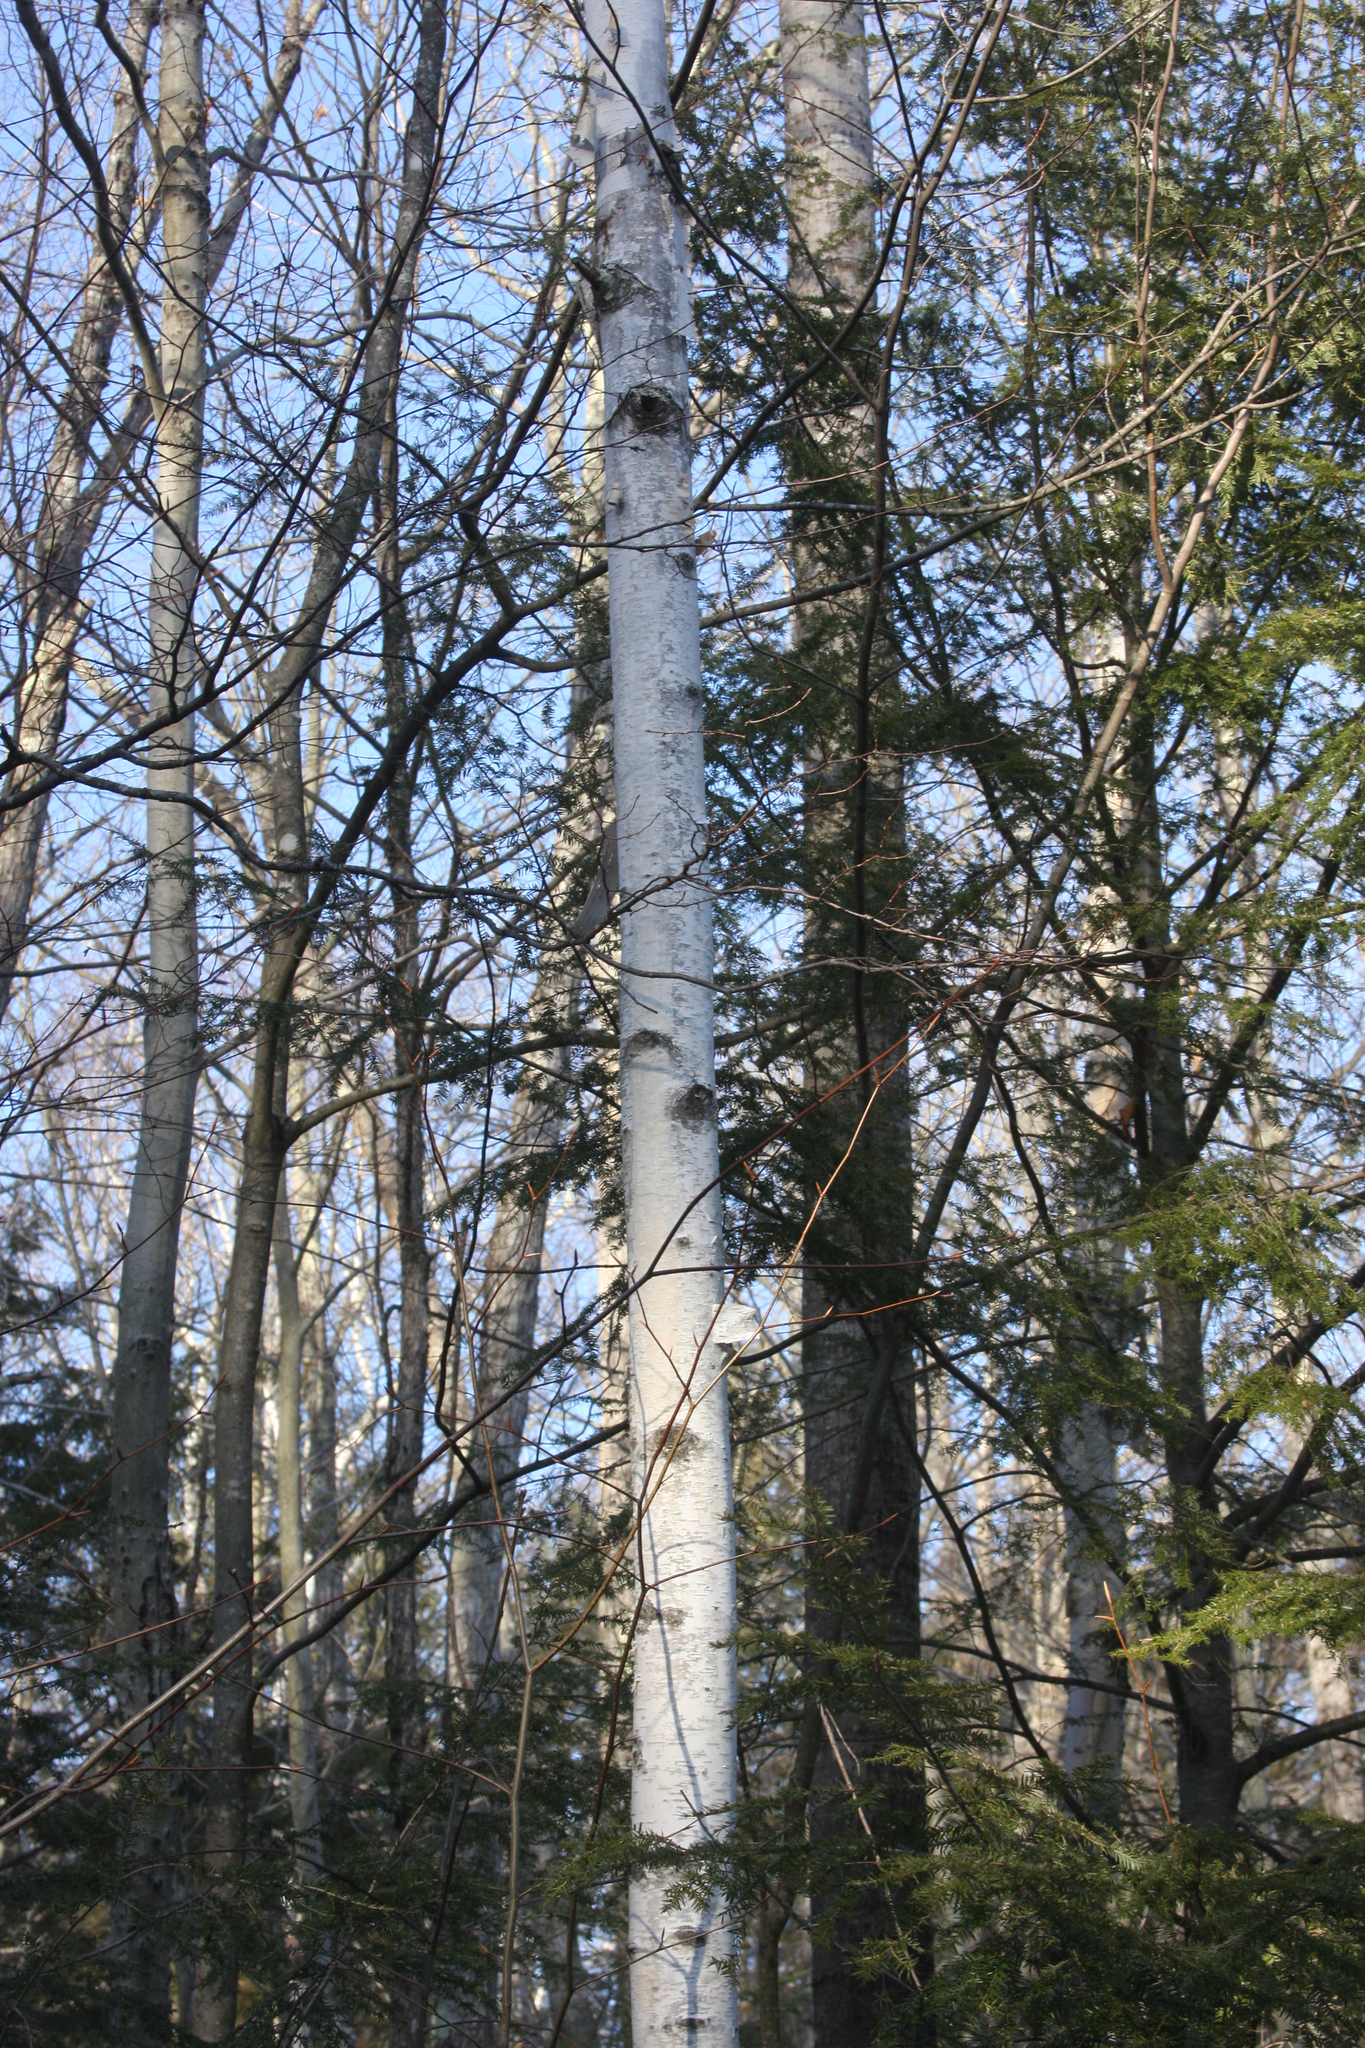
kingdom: Plantae
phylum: Tracheophyta
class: Magnoliopsida
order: Fagales
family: Betulaceae
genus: Betula
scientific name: Betula papyrifera
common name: Paper birch
